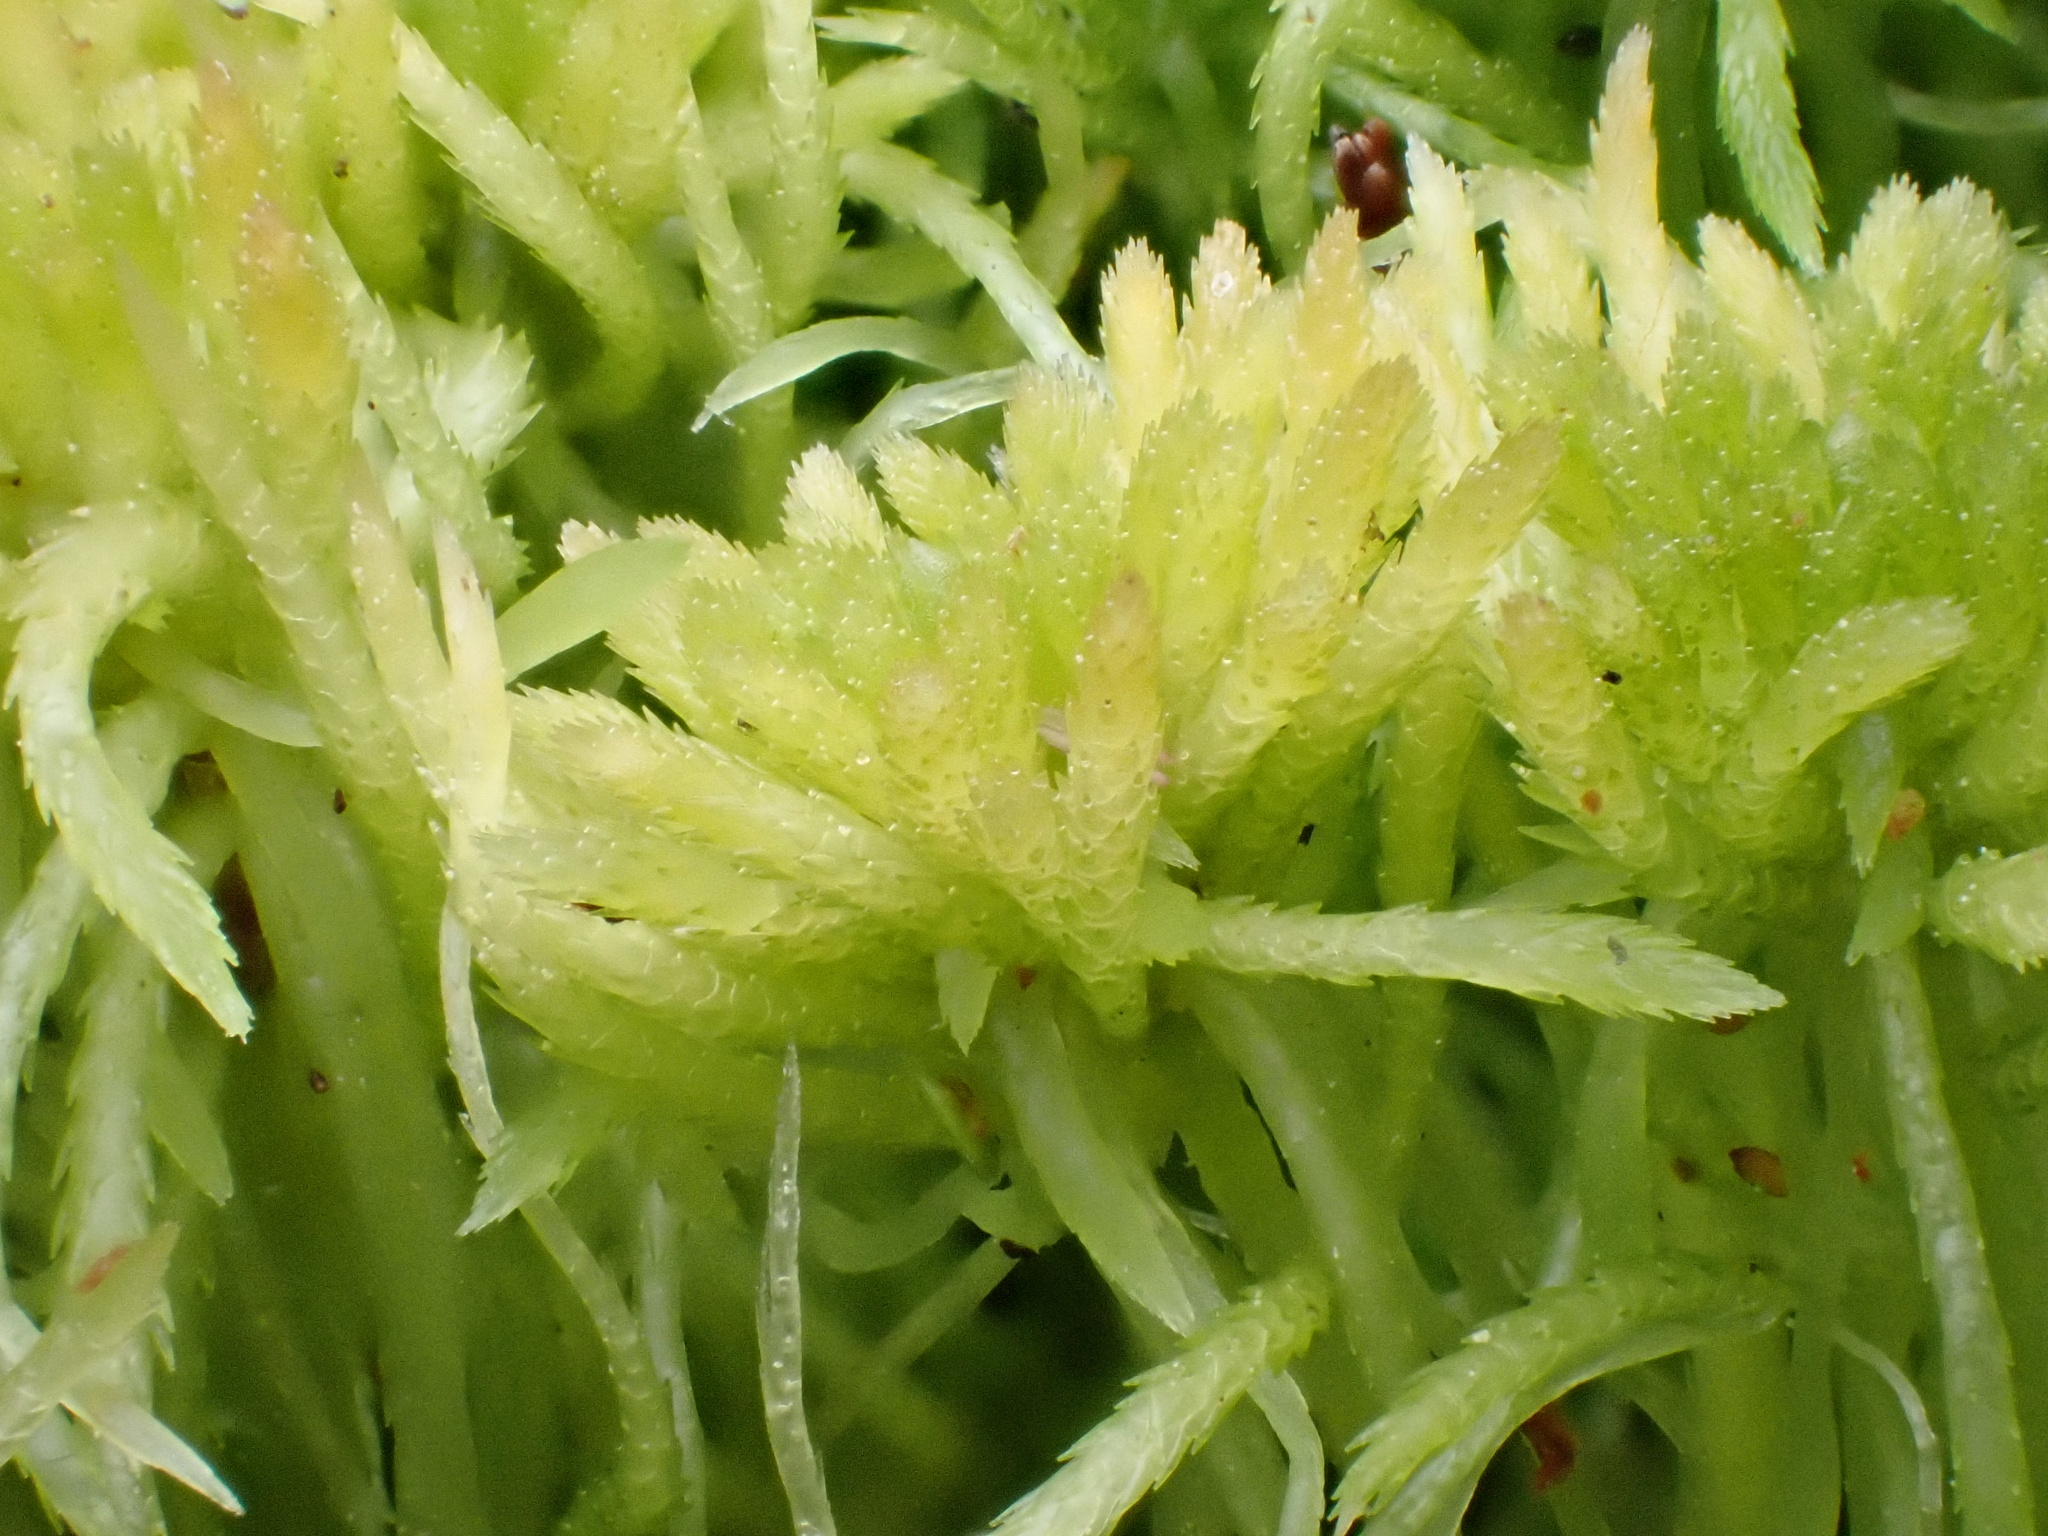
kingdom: Plantae
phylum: Bryophyta
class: Sphagnopsida
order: Sphagnales
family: Sphagnaceae
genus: Sphagnum
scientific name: Sphagnum girgensohnii
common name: Girgensohn's peat moss
